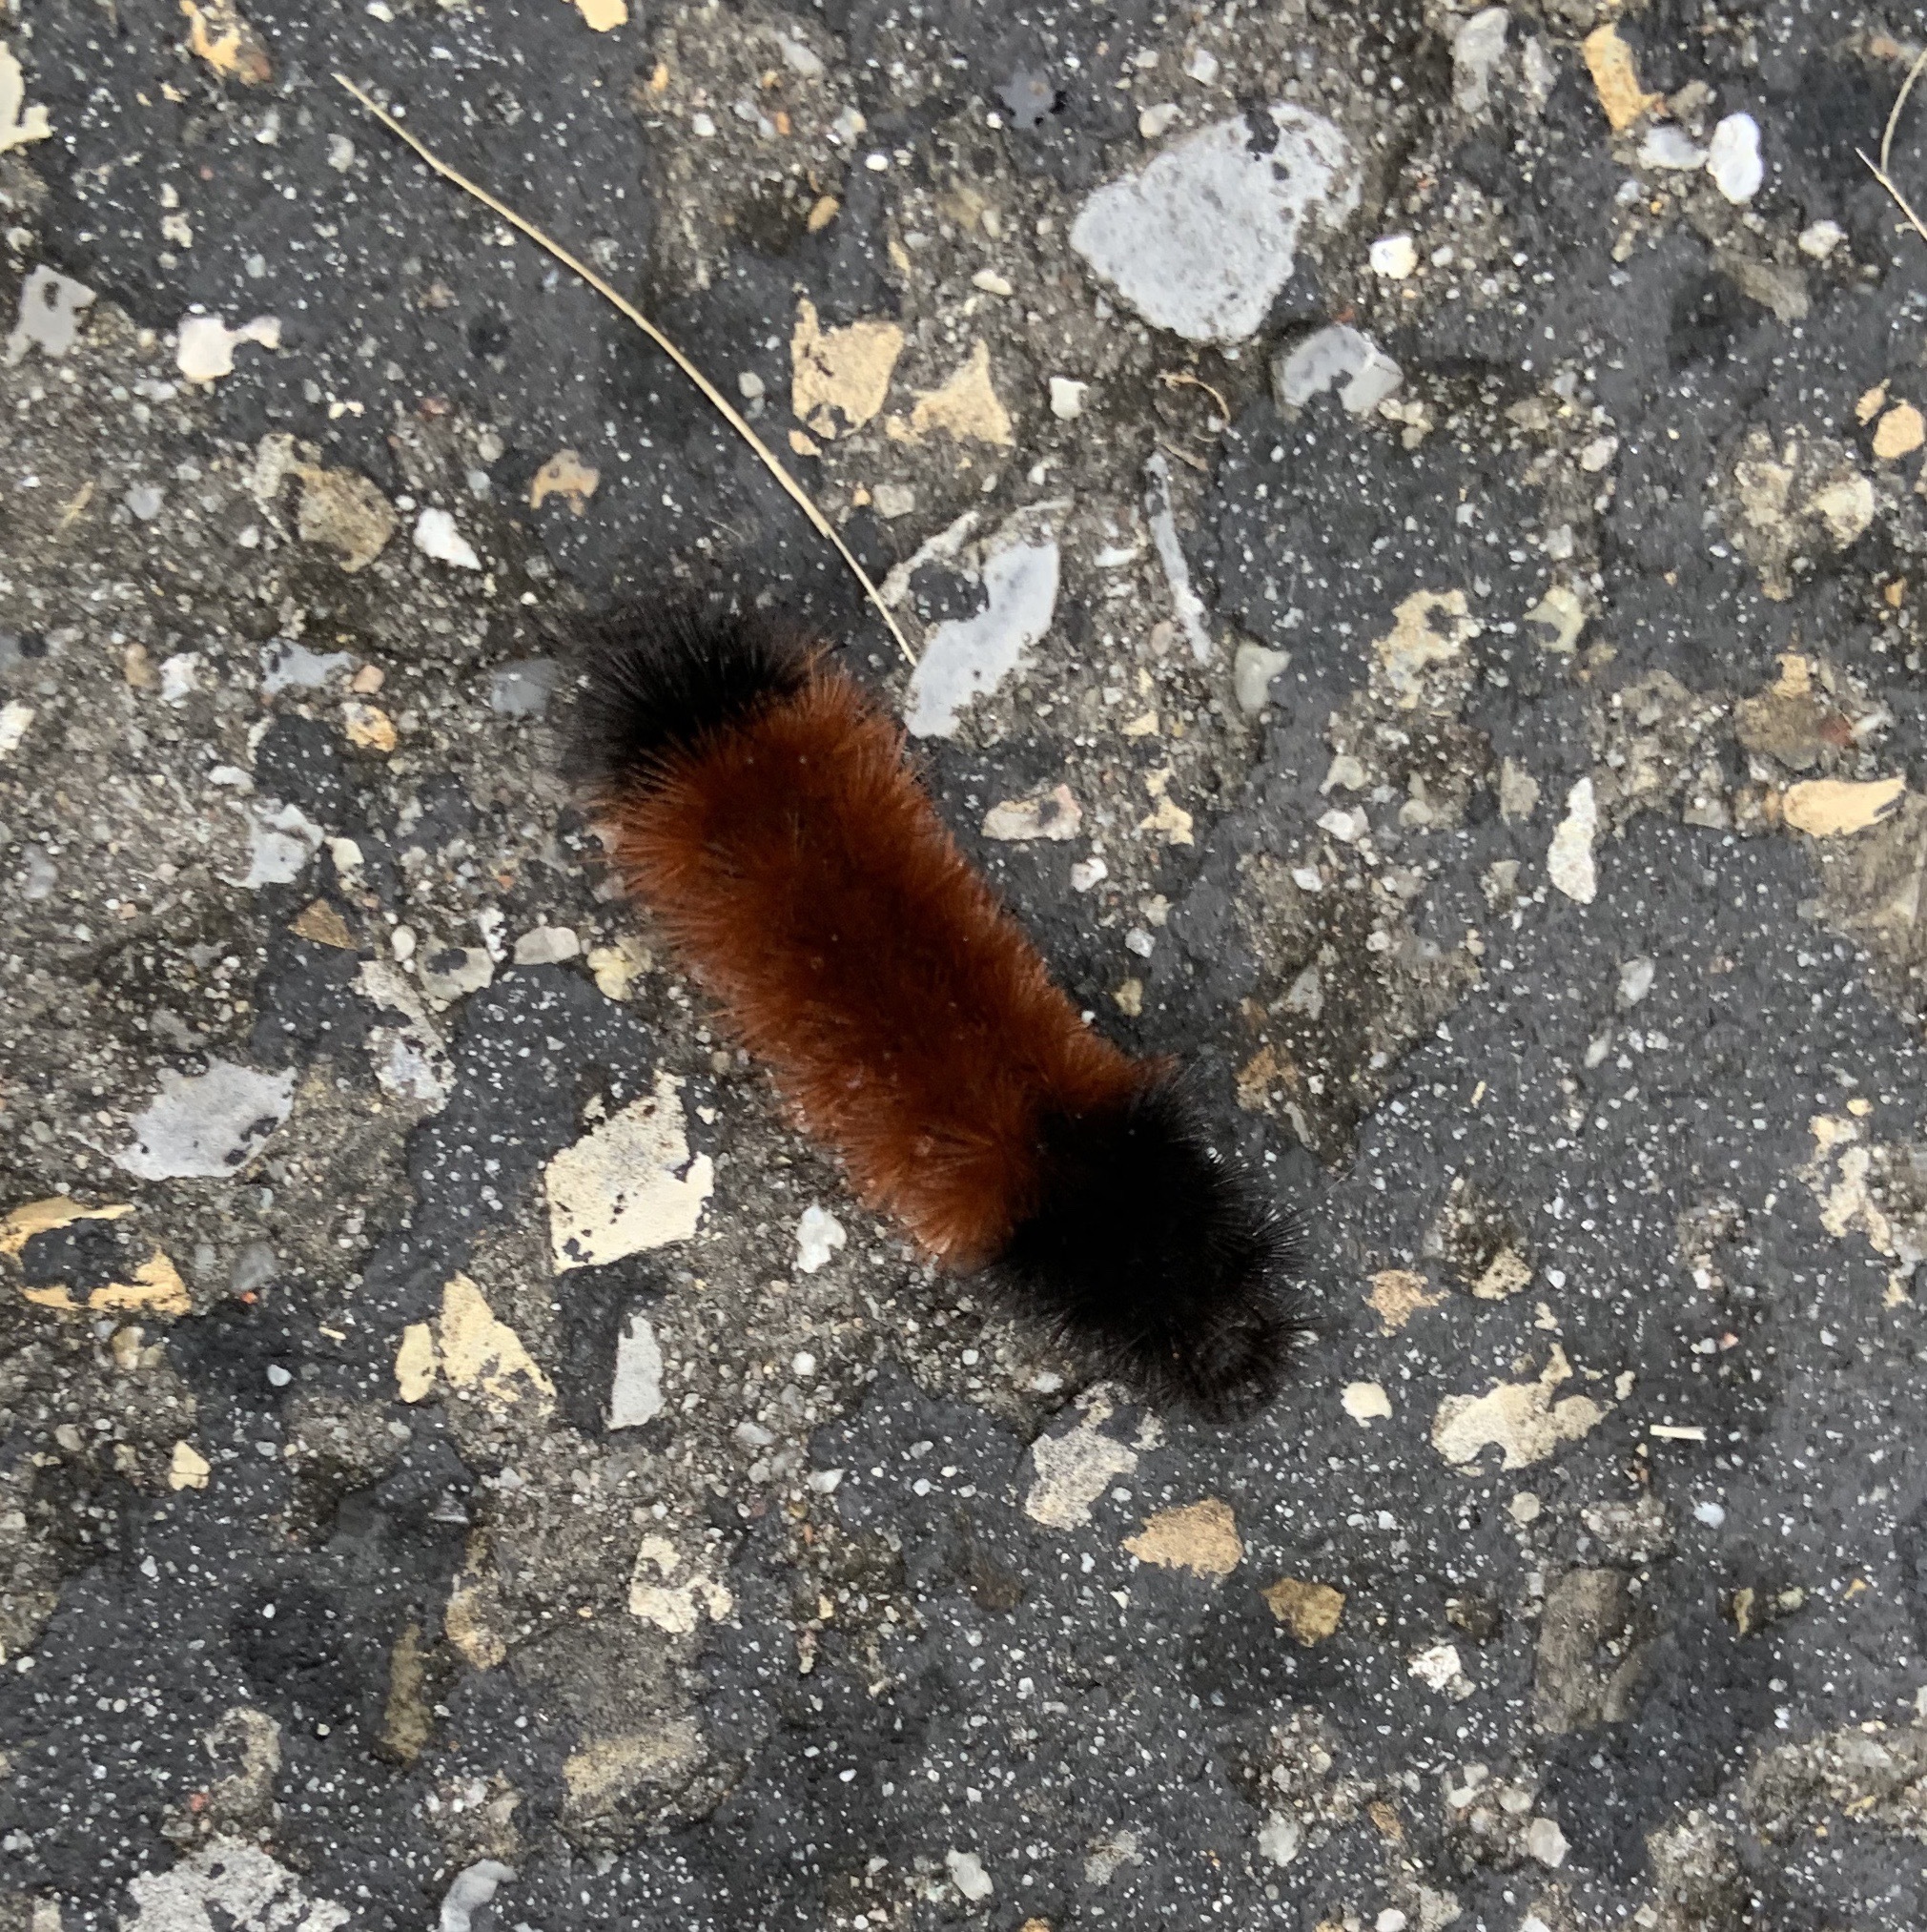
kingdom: Animalia
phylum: Arthropoda
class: Insecta
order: Lepidoptera
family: Erebidae
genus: Pyrrharctia
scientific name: Pyrrharctia isabella
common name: Isabella tiger moth
